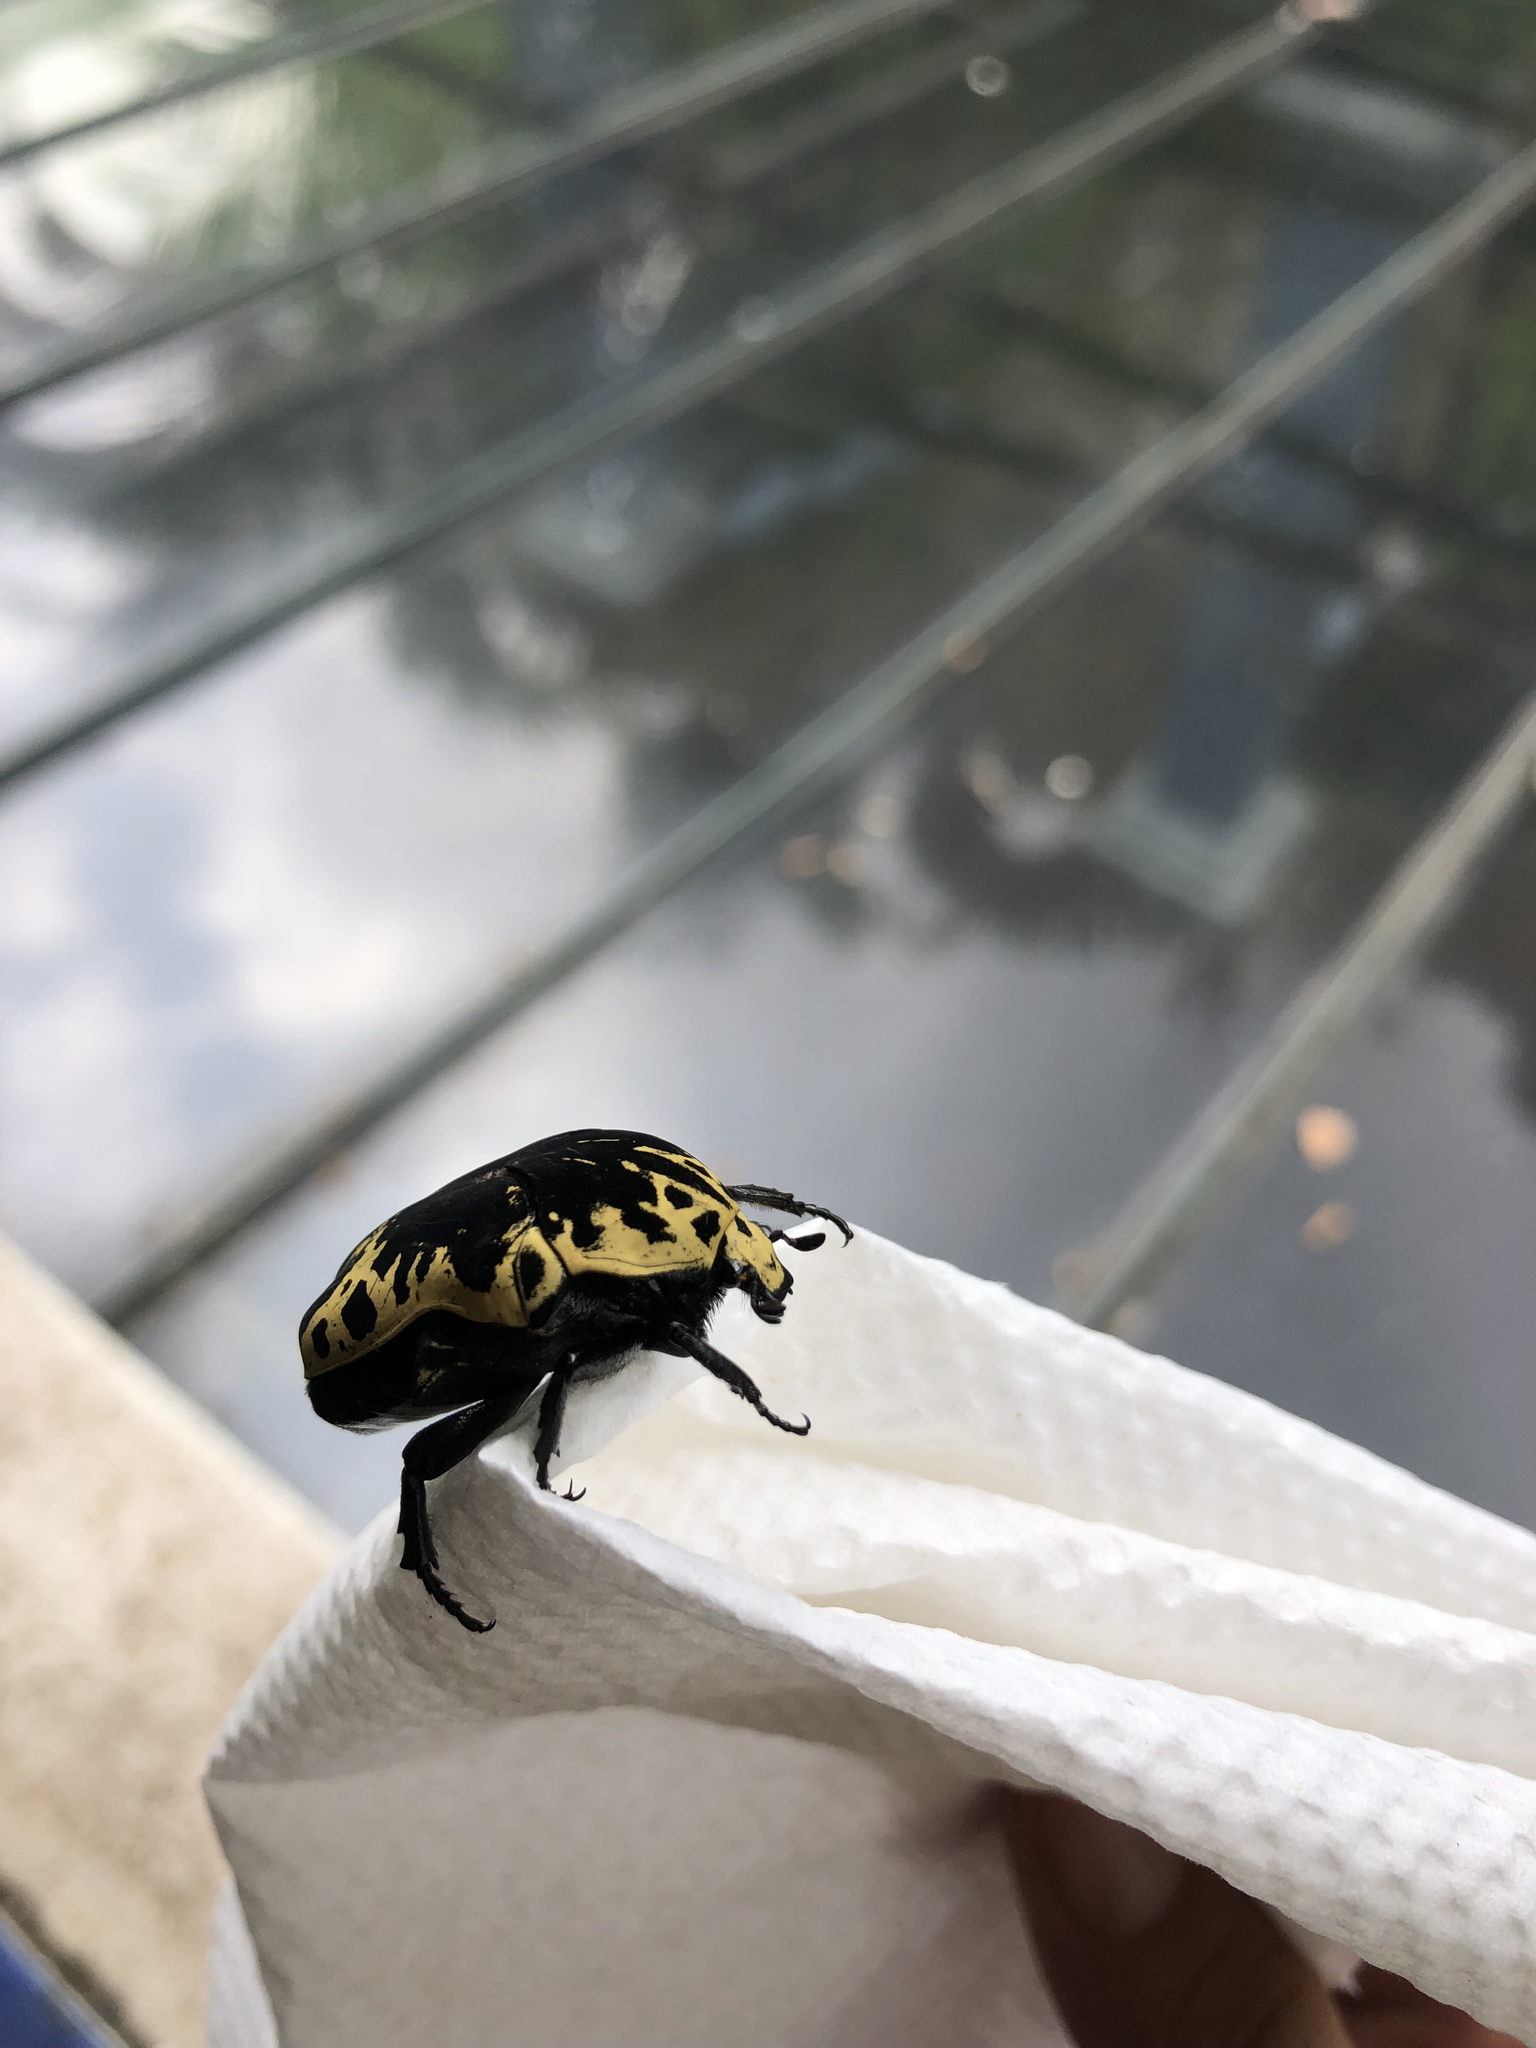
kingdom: Animalia
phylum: Arthropoda
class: Insecta
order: Coleoptera
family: Scarabaeidae
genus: Gymnetis
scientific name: Gymnetis thula
